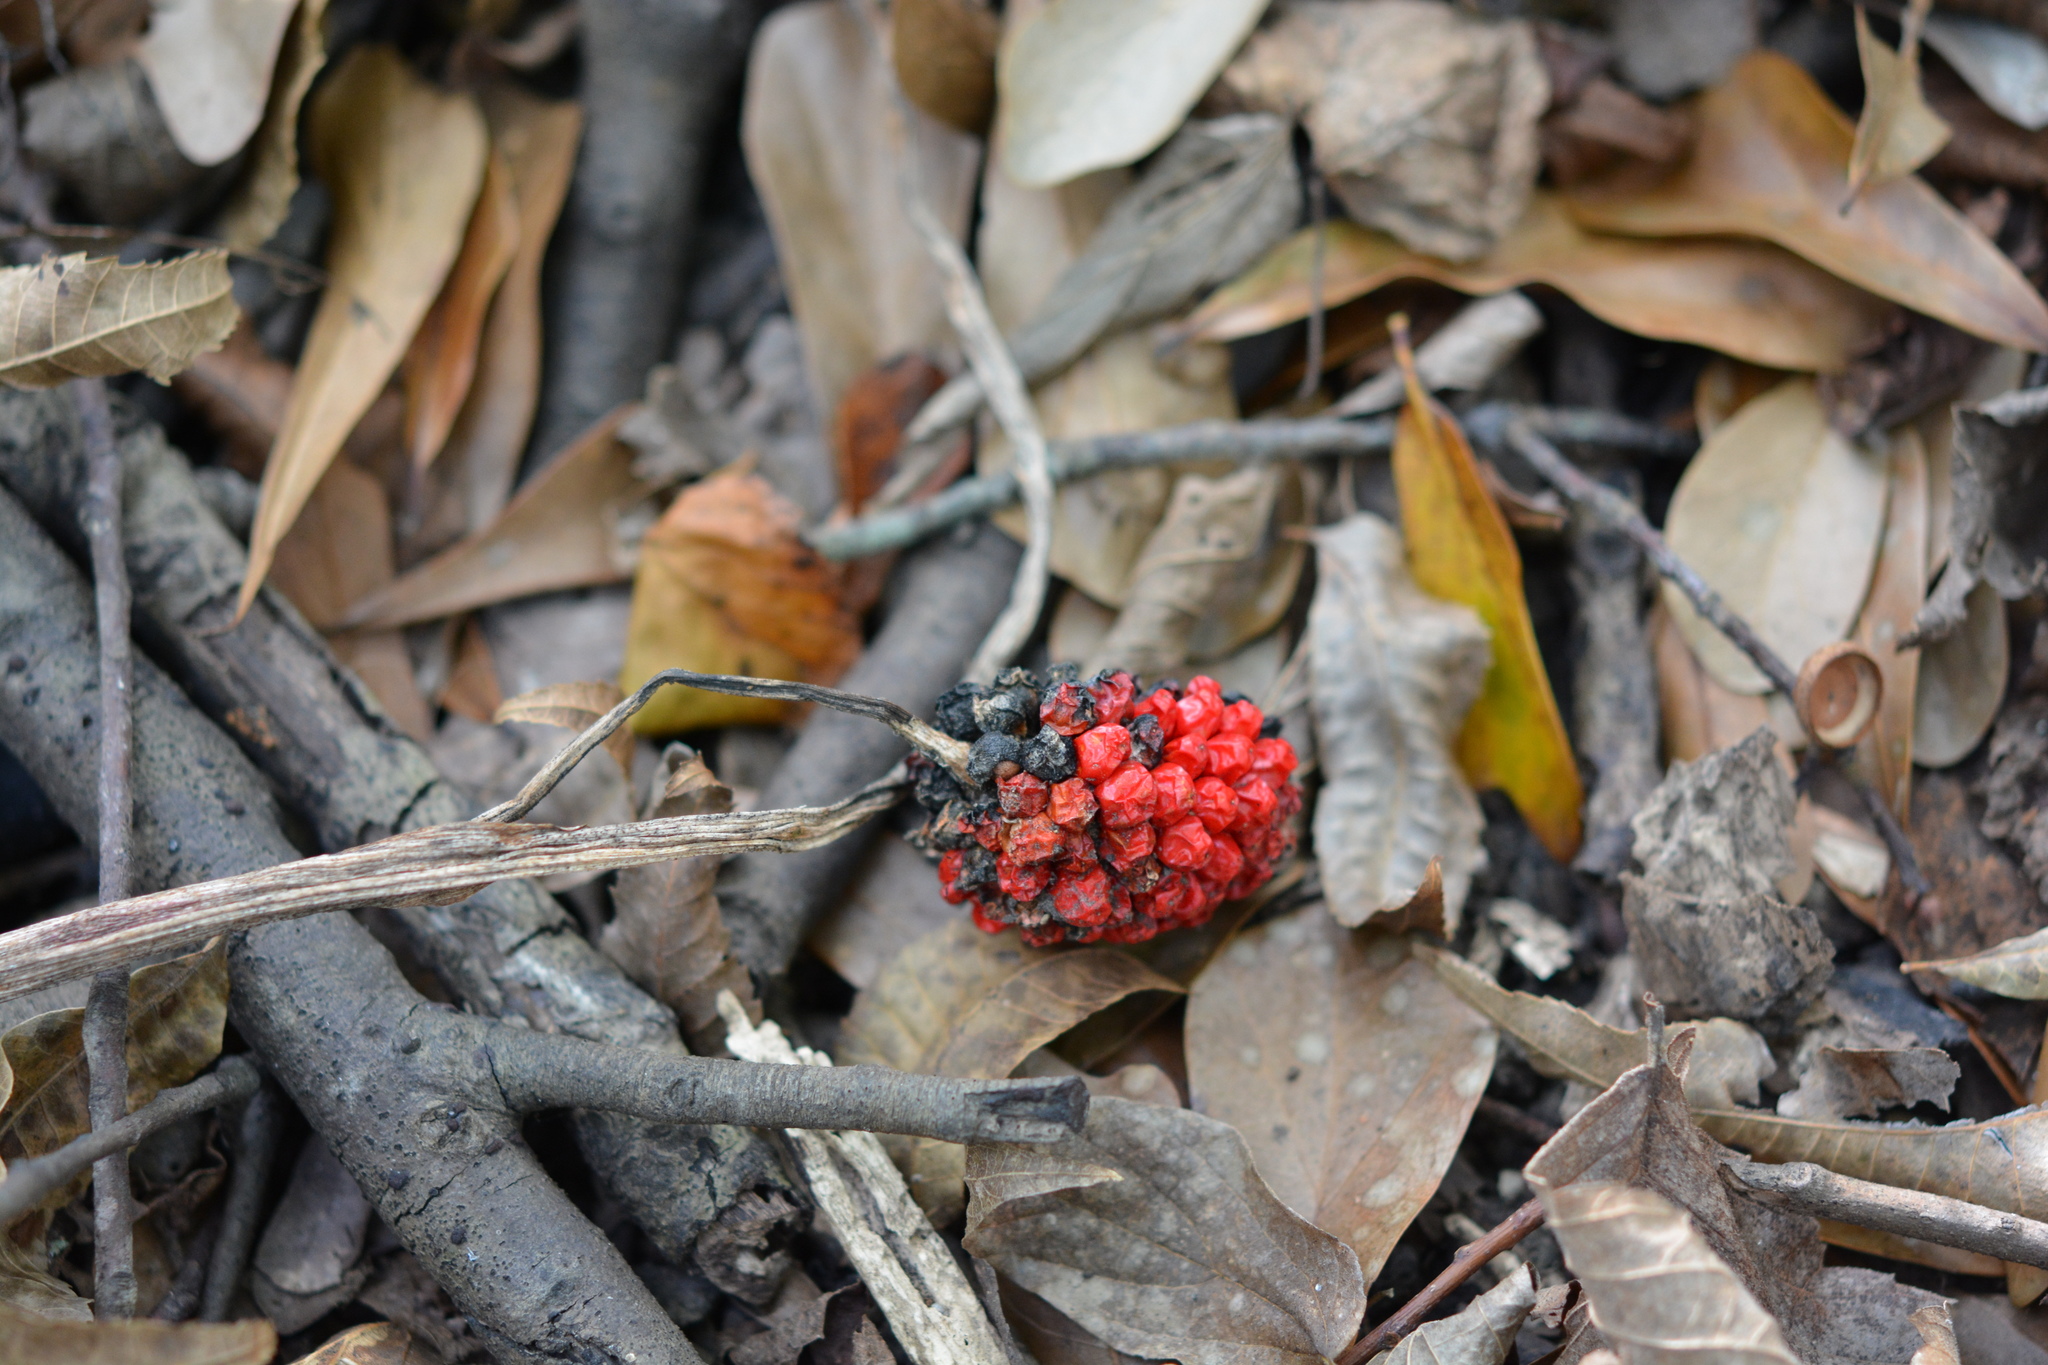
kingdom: Plantae
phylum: Tracheophyta
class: Liliopsida
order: Alismatales
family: Araceae
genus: Arisaema
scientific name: Arisaema triphyllum
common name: Jack-in-the-pulpit
